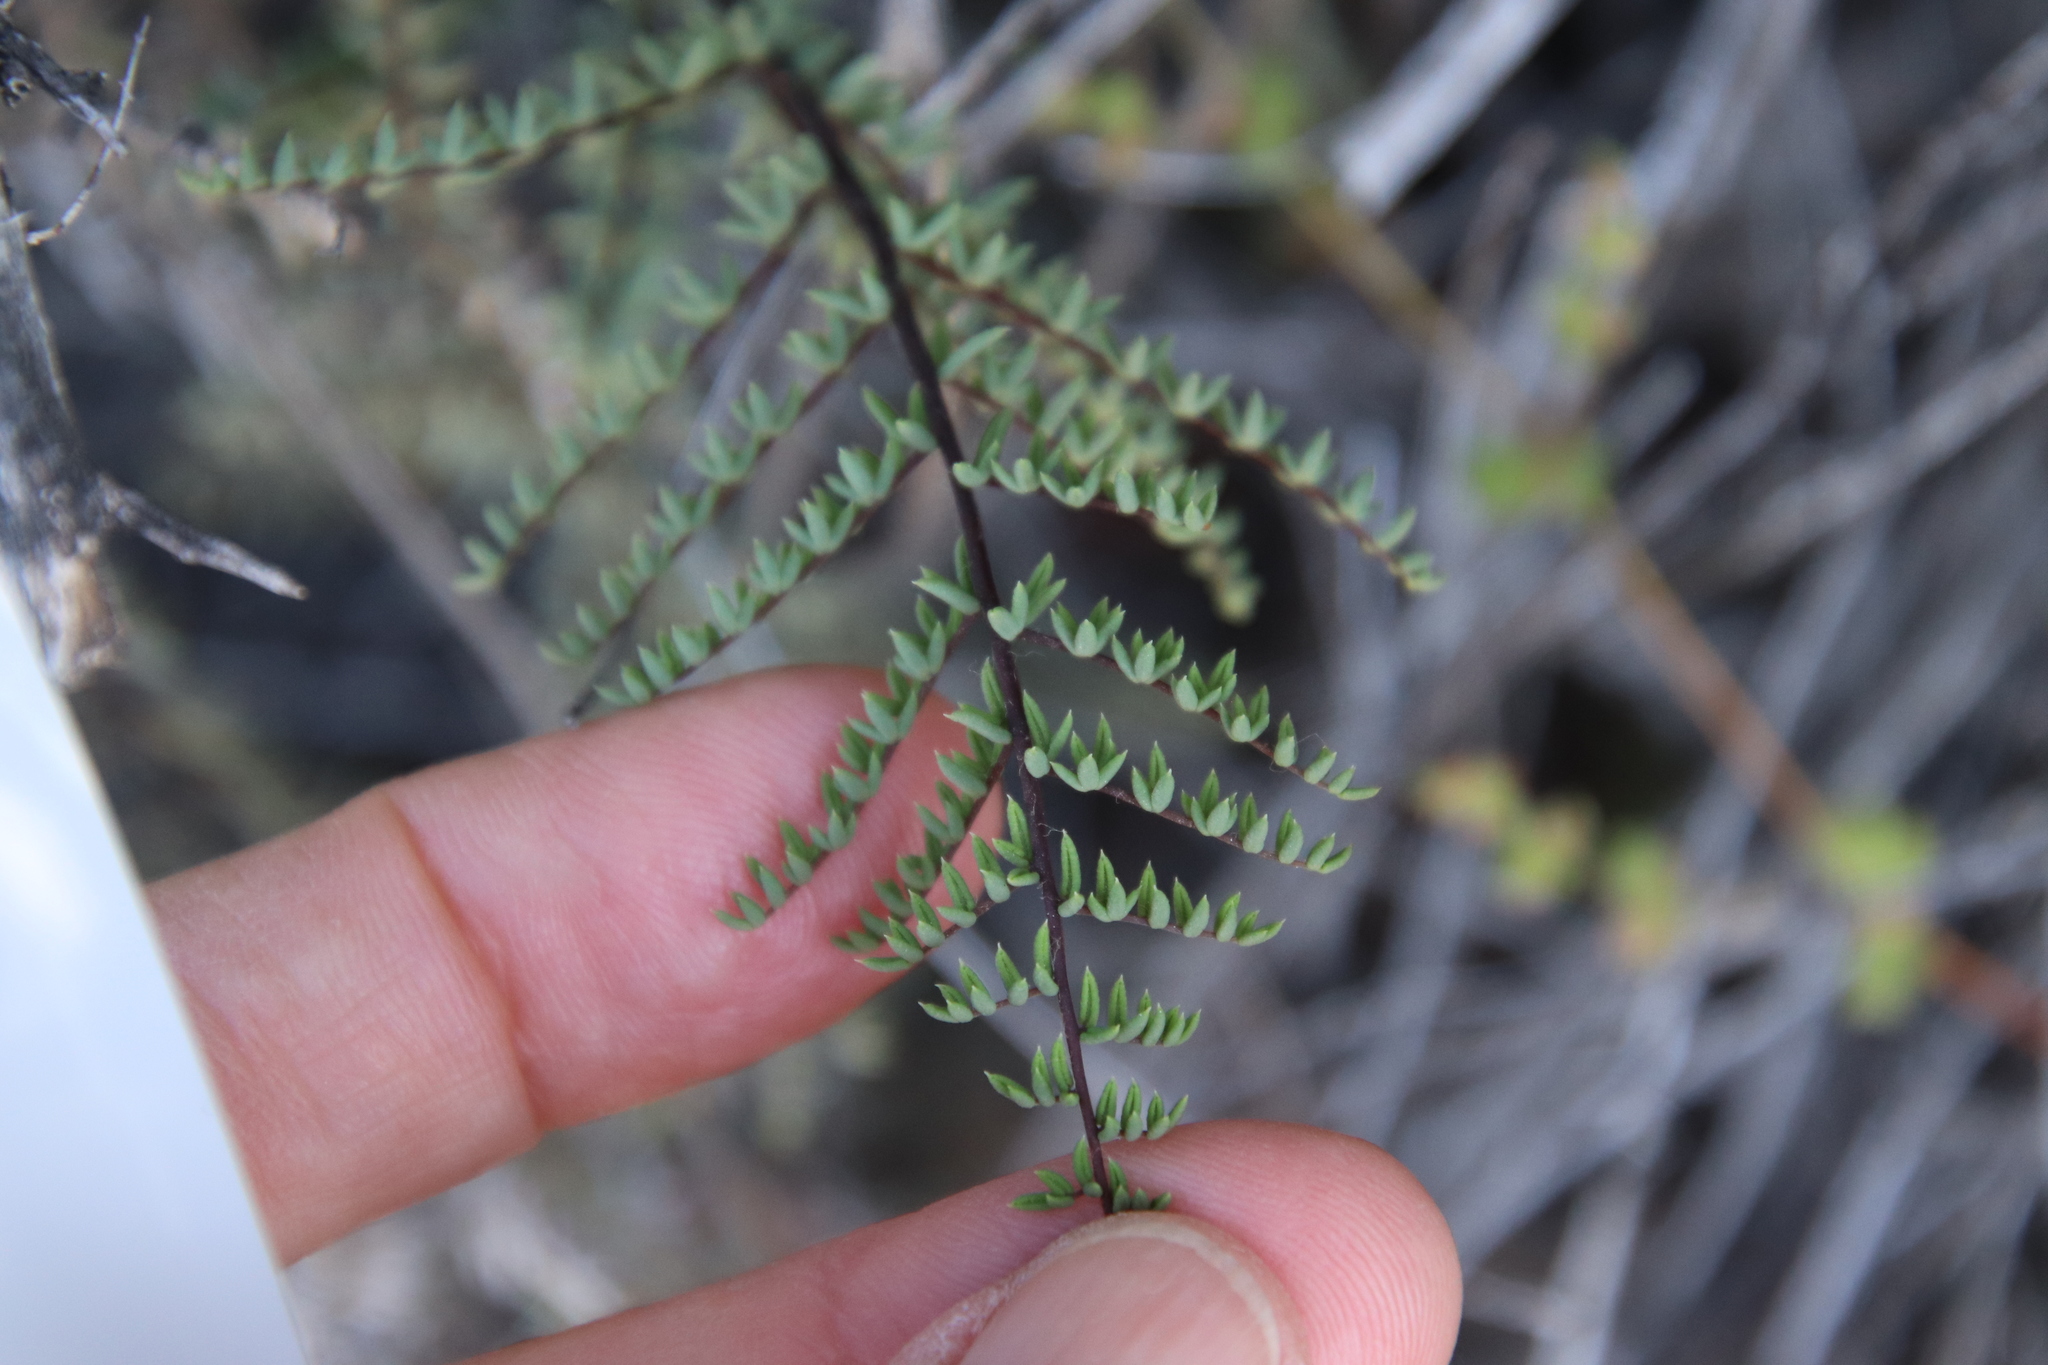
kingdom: Plantae
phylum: Tracheophyta
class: Polypodiopsida
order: Polypodiales
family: Pteridaceae
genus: Pellaea
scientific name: Pellaea mucronata
